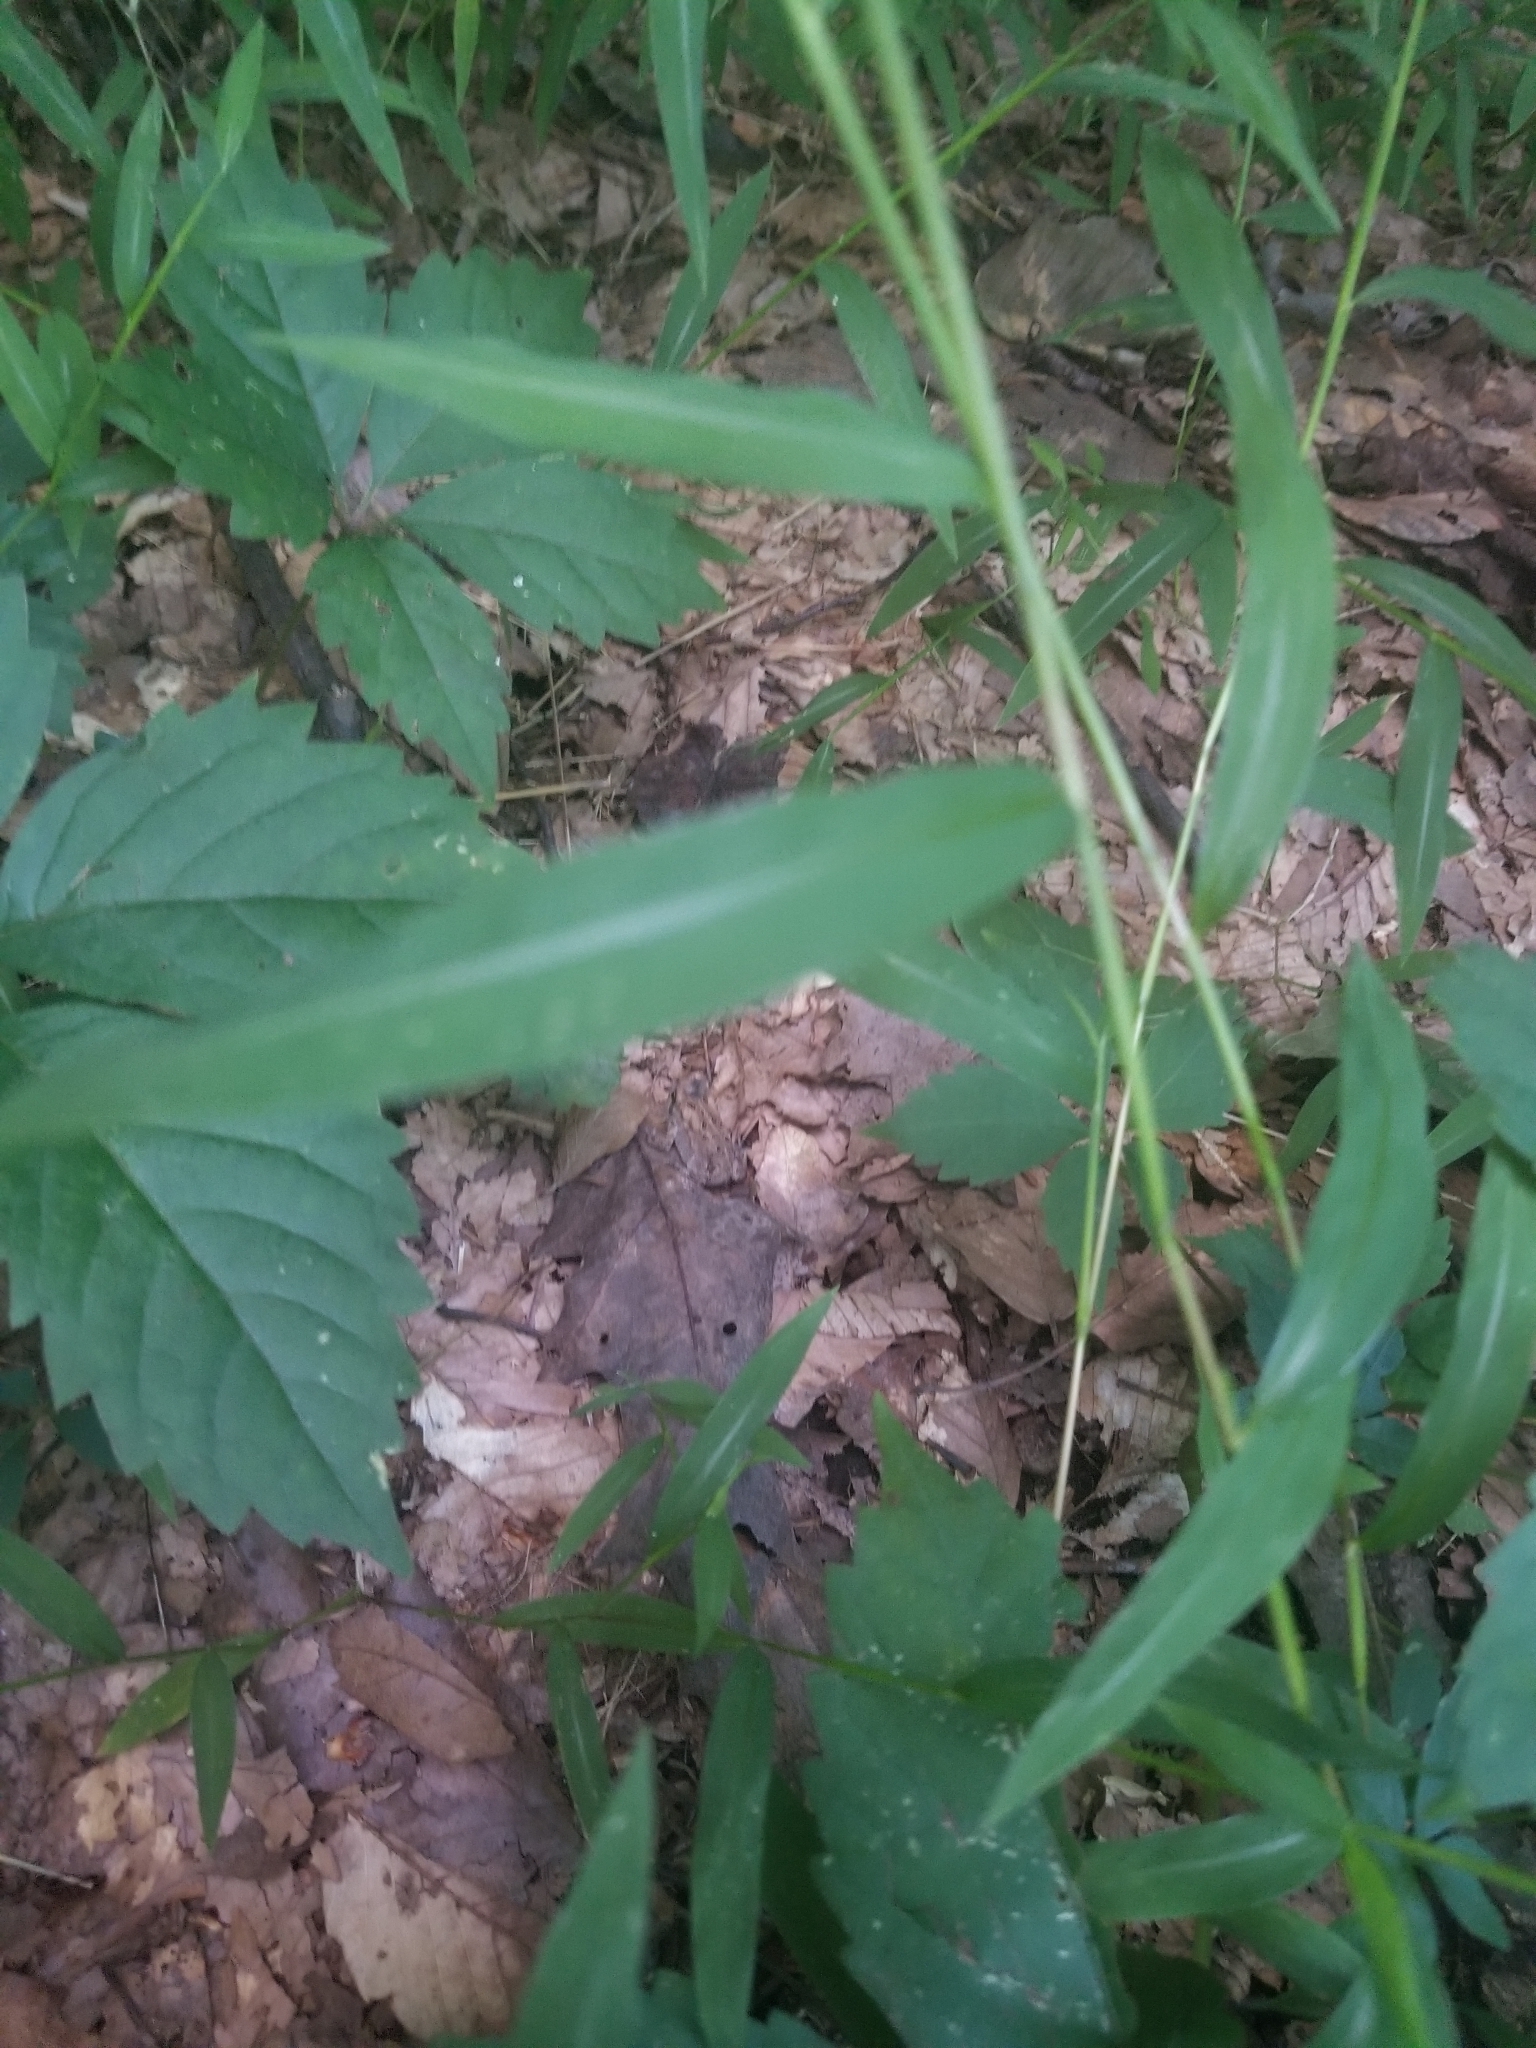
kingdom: Animalia
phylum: Chordata
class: Amphibia
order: Anura
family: Bufonidae
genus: Anaxyrus
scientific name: Anaxyrus americanus
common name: American toad
